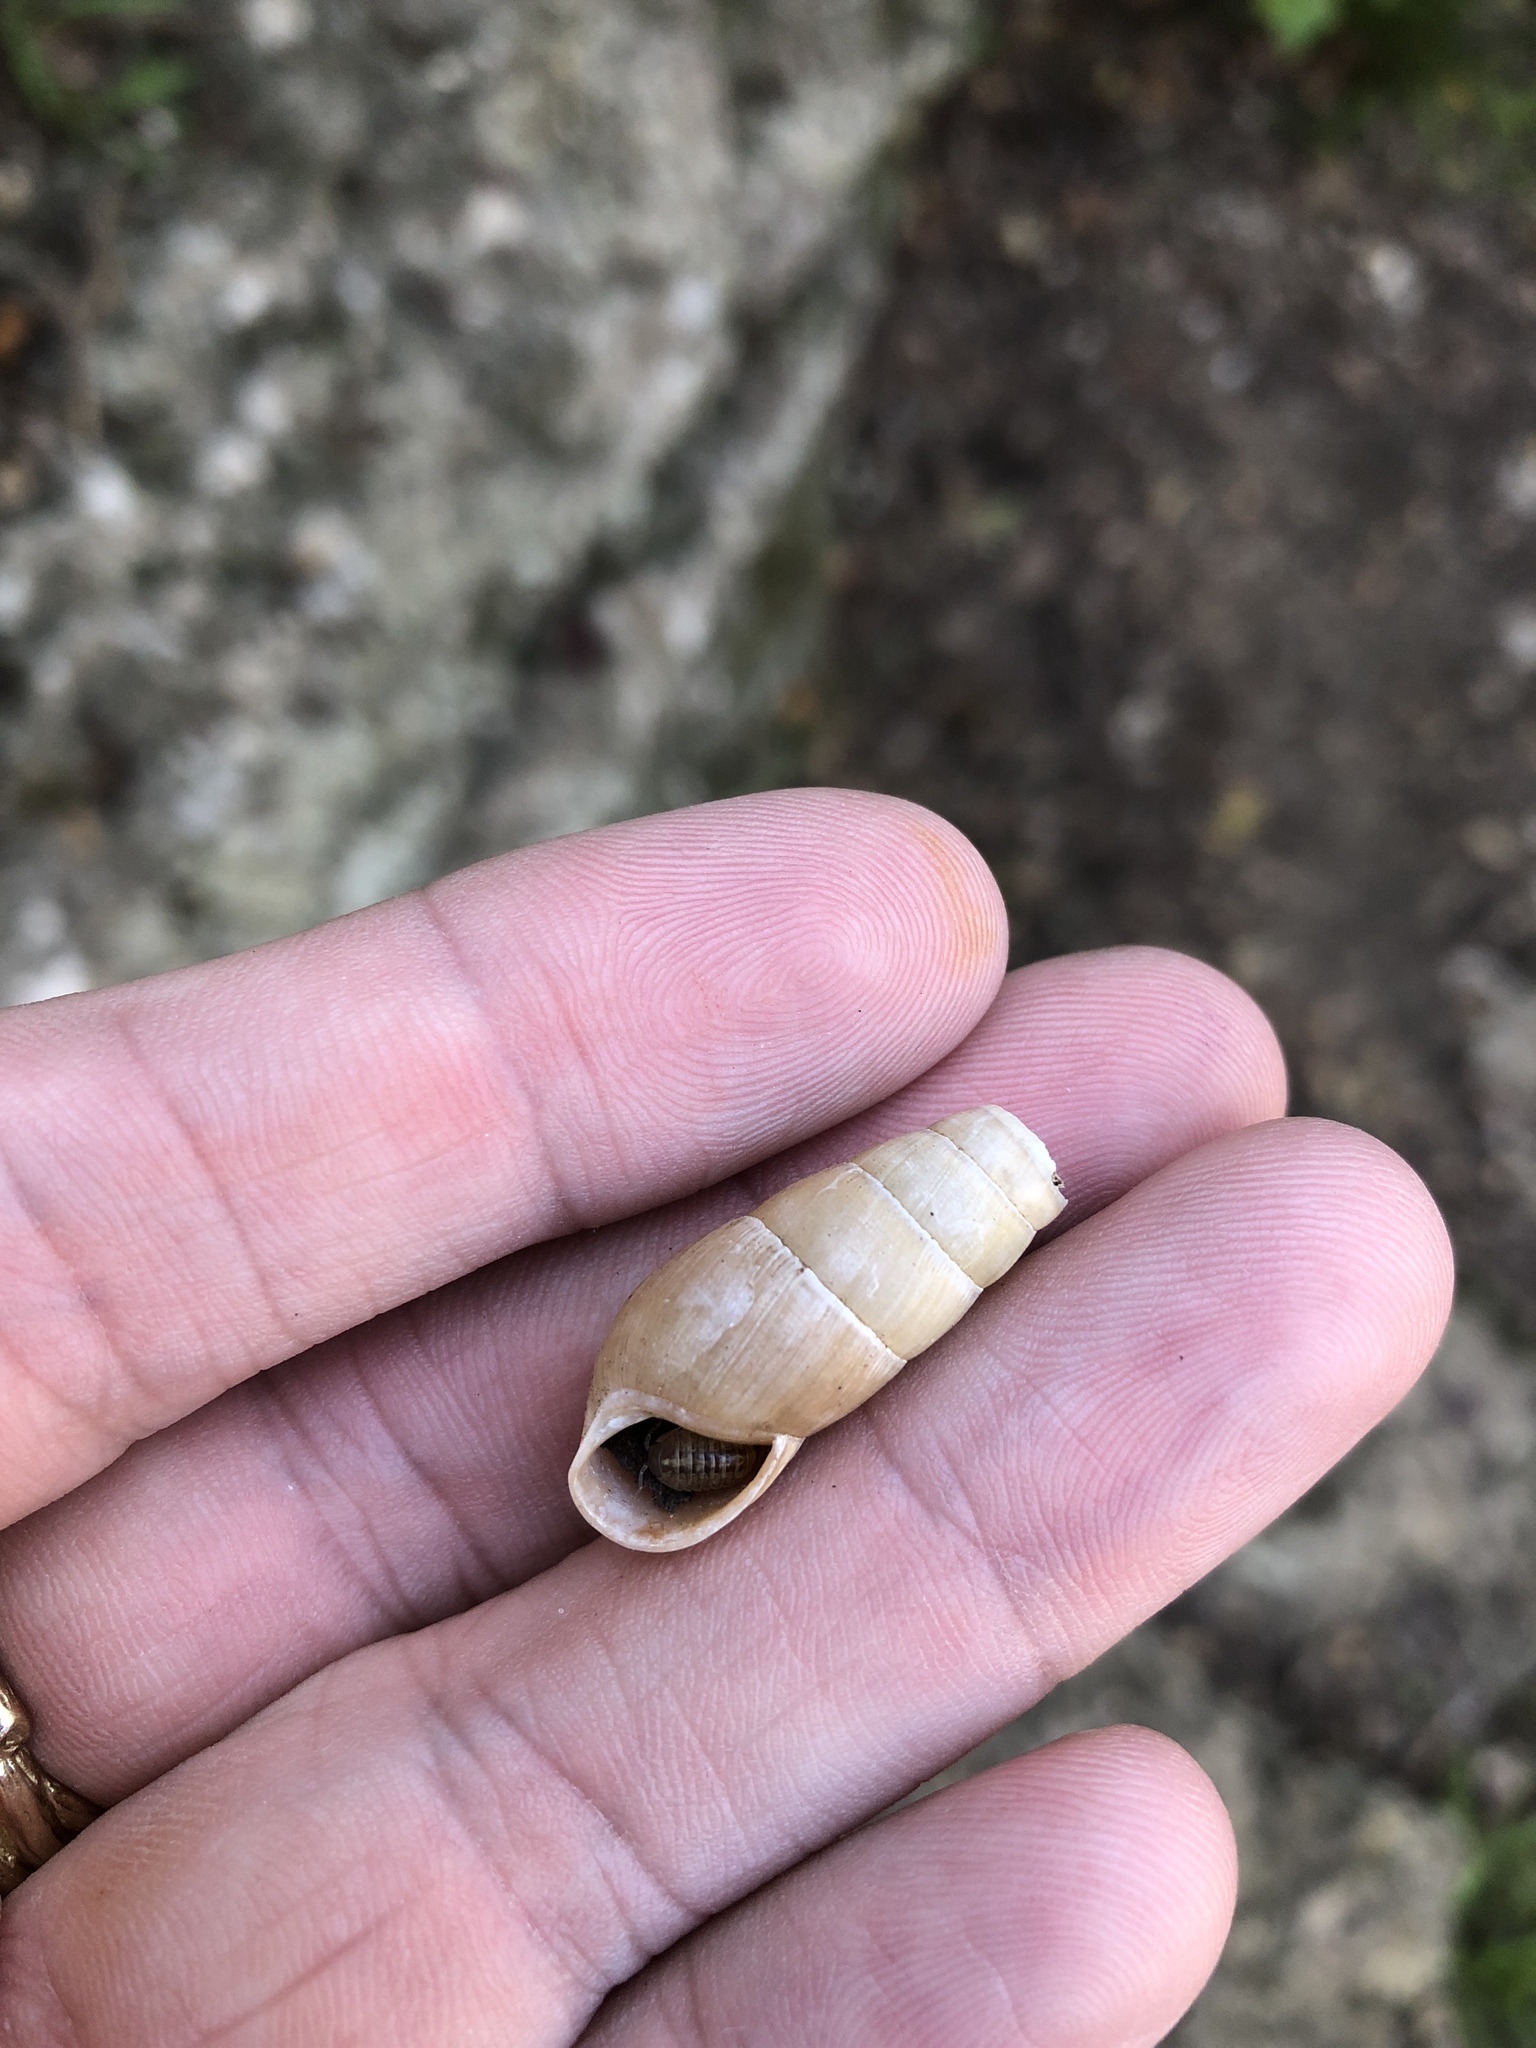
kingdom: Animalia
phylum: Mollusca
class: Gastropoda
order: Stylommatophora
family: Achatinidae
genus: Rumina
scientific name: Rumina decollata
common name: Decollate snail
